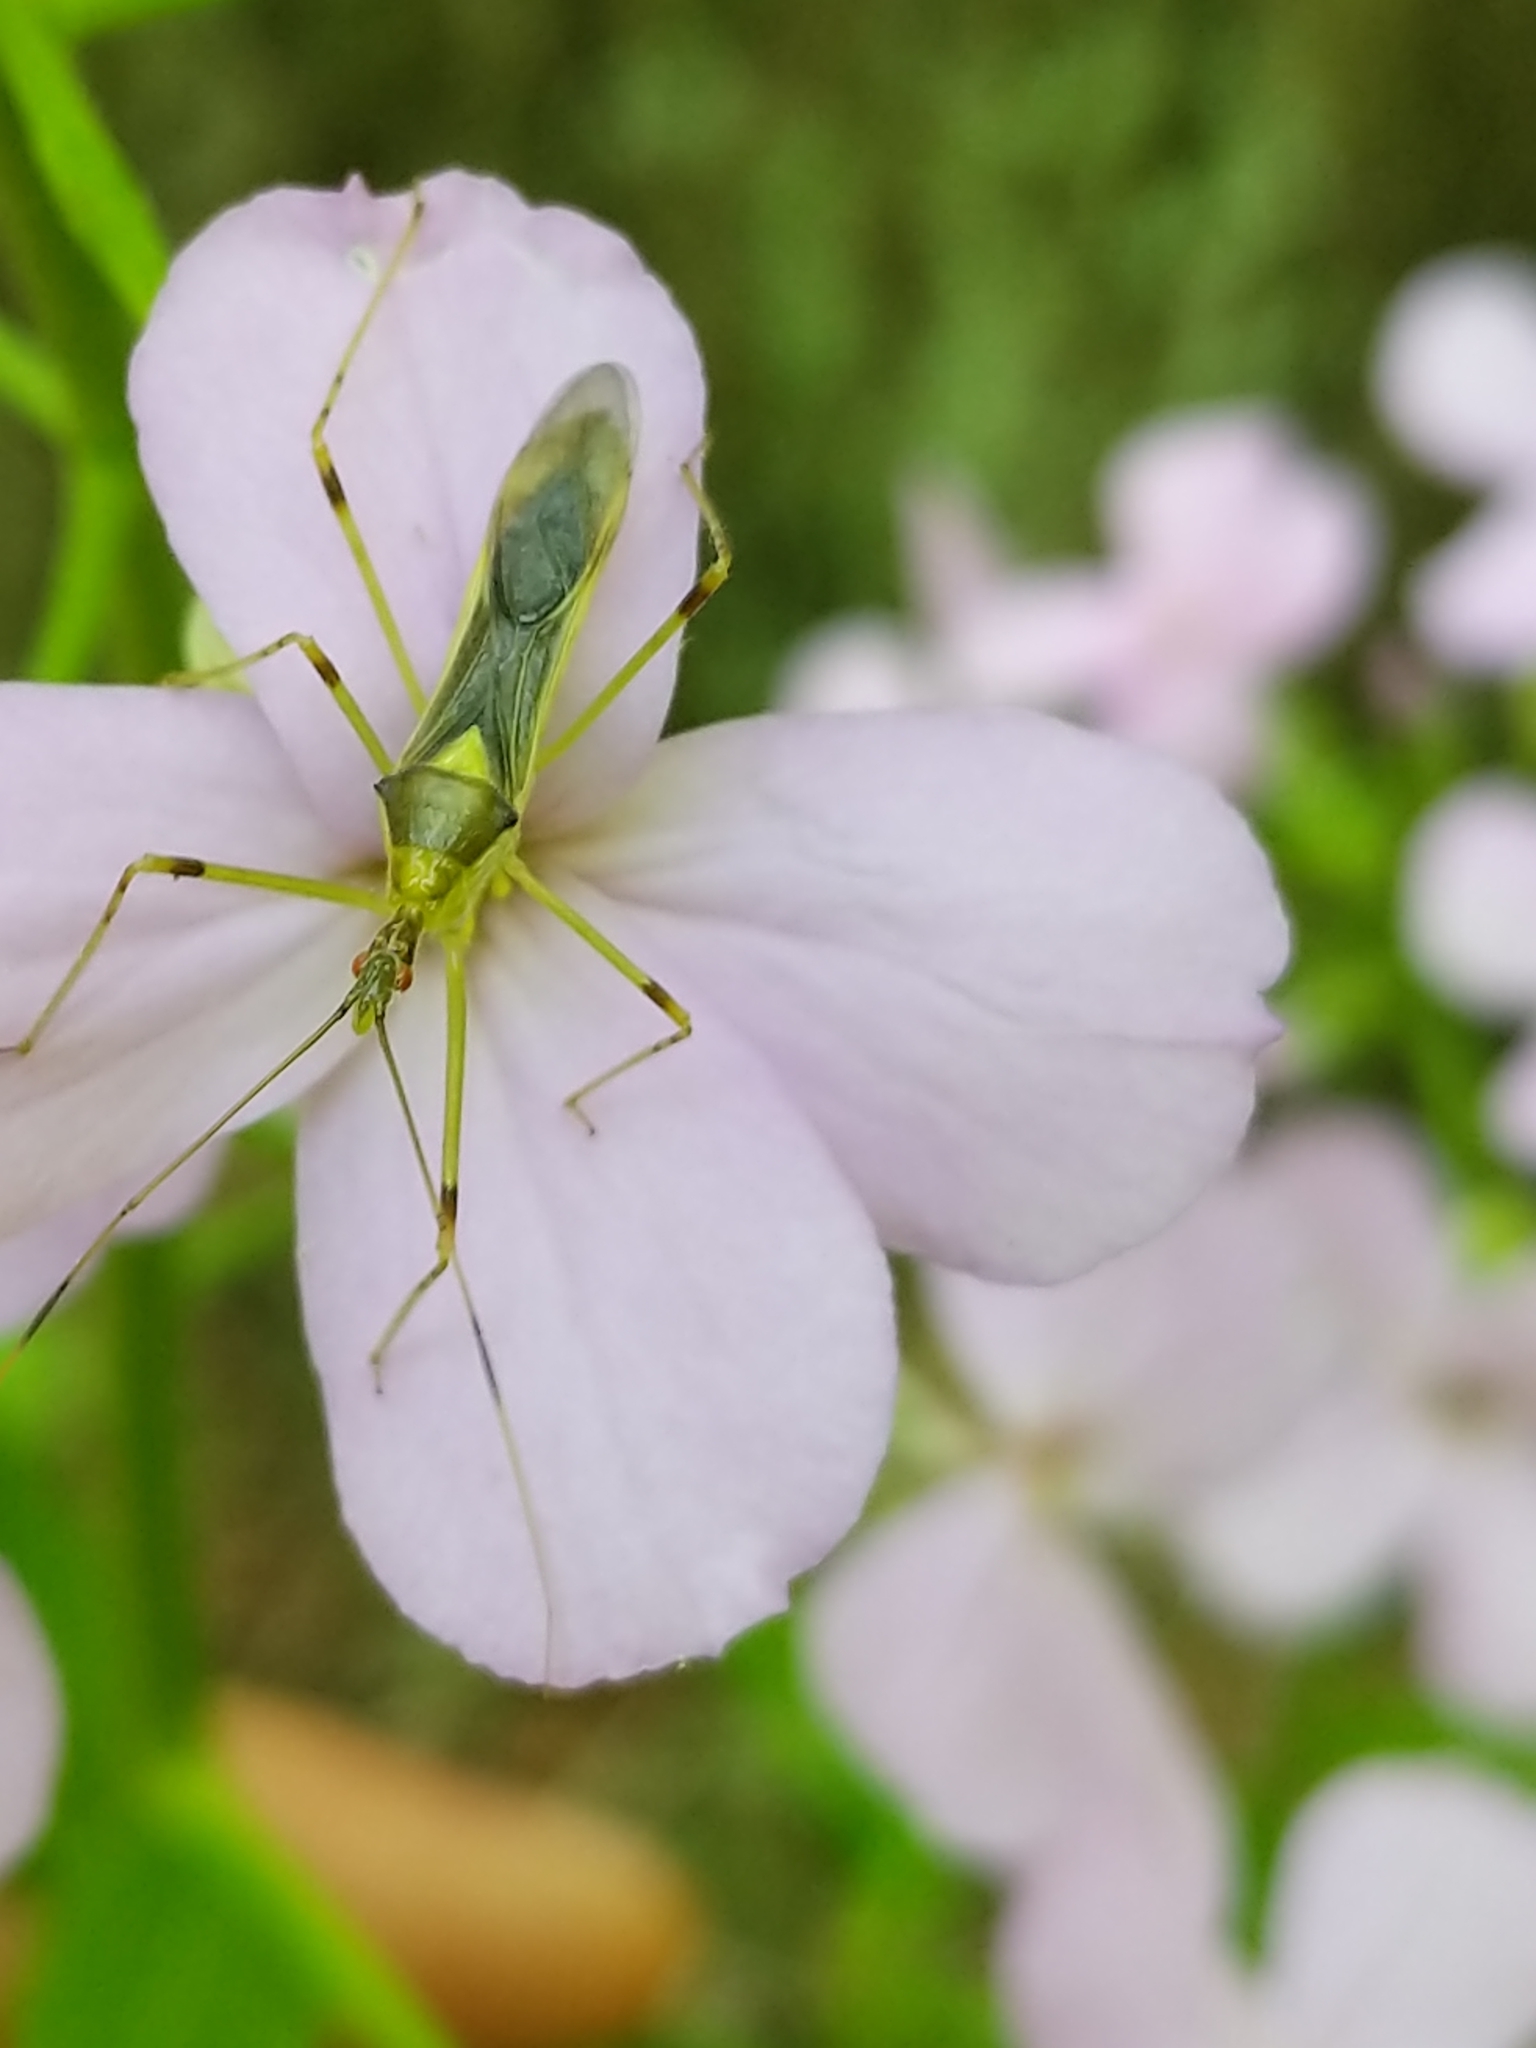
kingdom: Animalia
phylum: Arthropoda
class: Insecta
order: Hemiptera
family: Reduviidae
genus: Zelus
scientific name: Zelus luridus
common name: Pale green assassin bug
